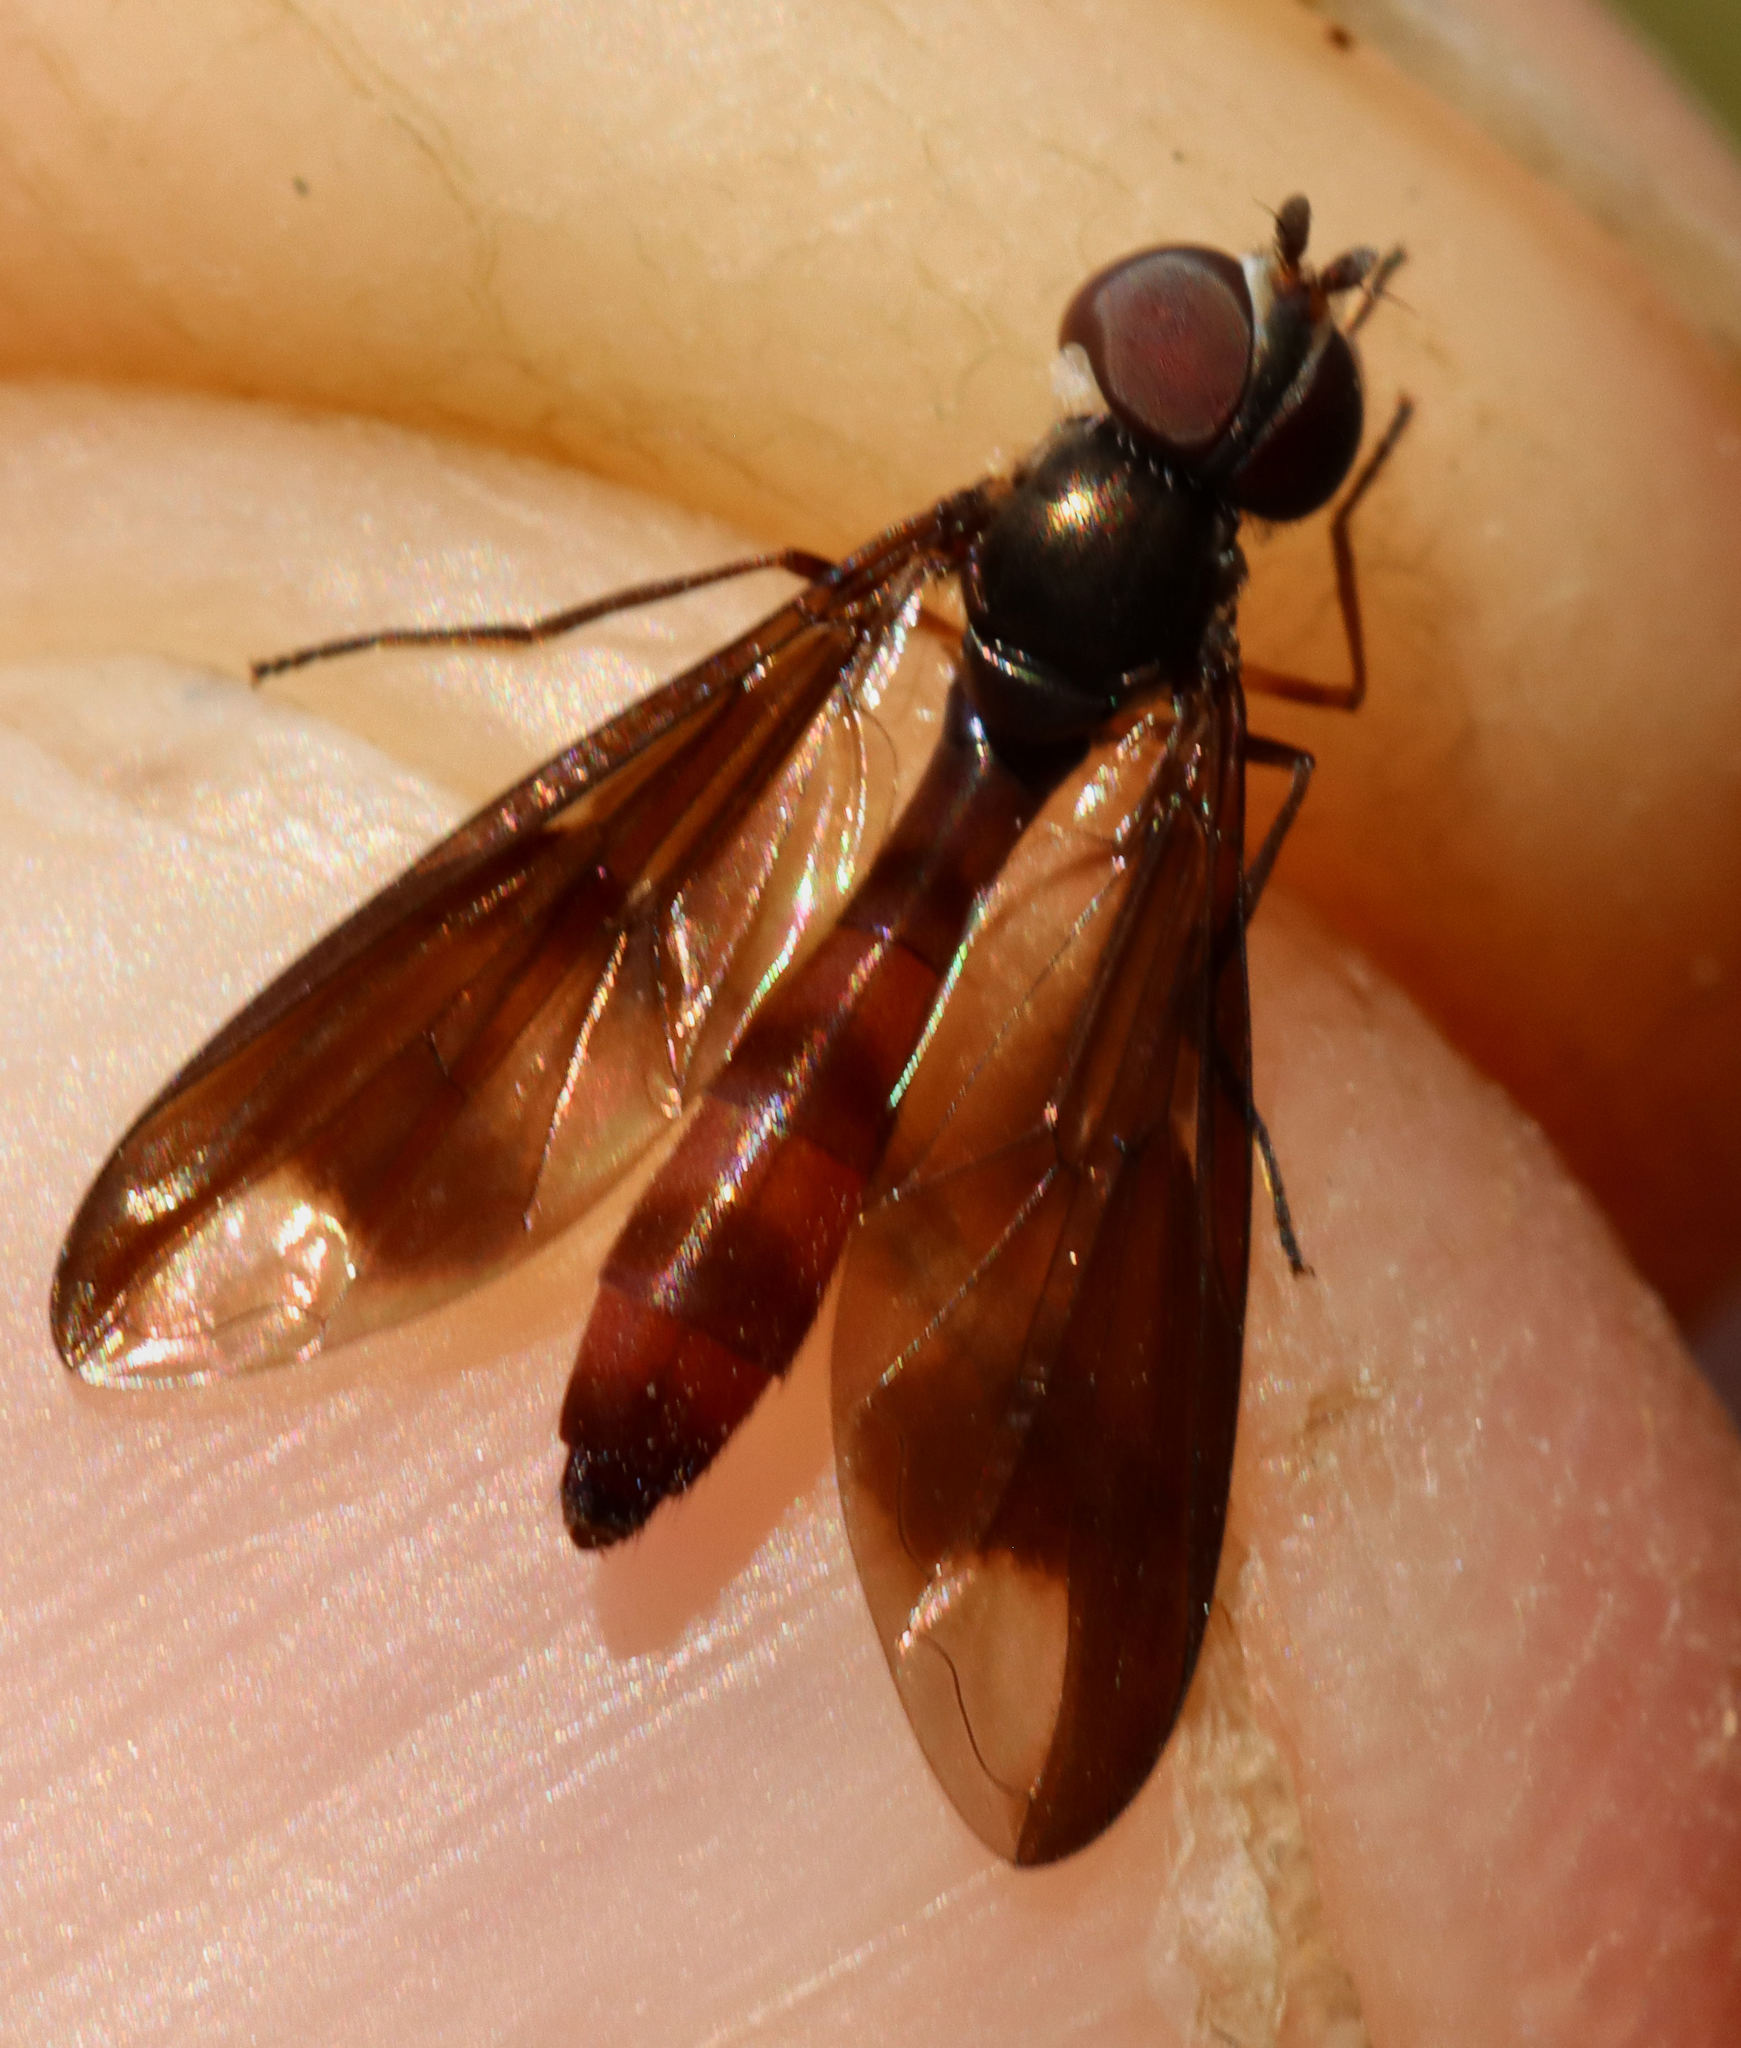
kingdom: Animalia
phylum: Arthropoda
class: Insecta
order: Diptera
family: Syrphidae
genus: Ocyptamus
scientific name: Ocyptamus fuscipennis
